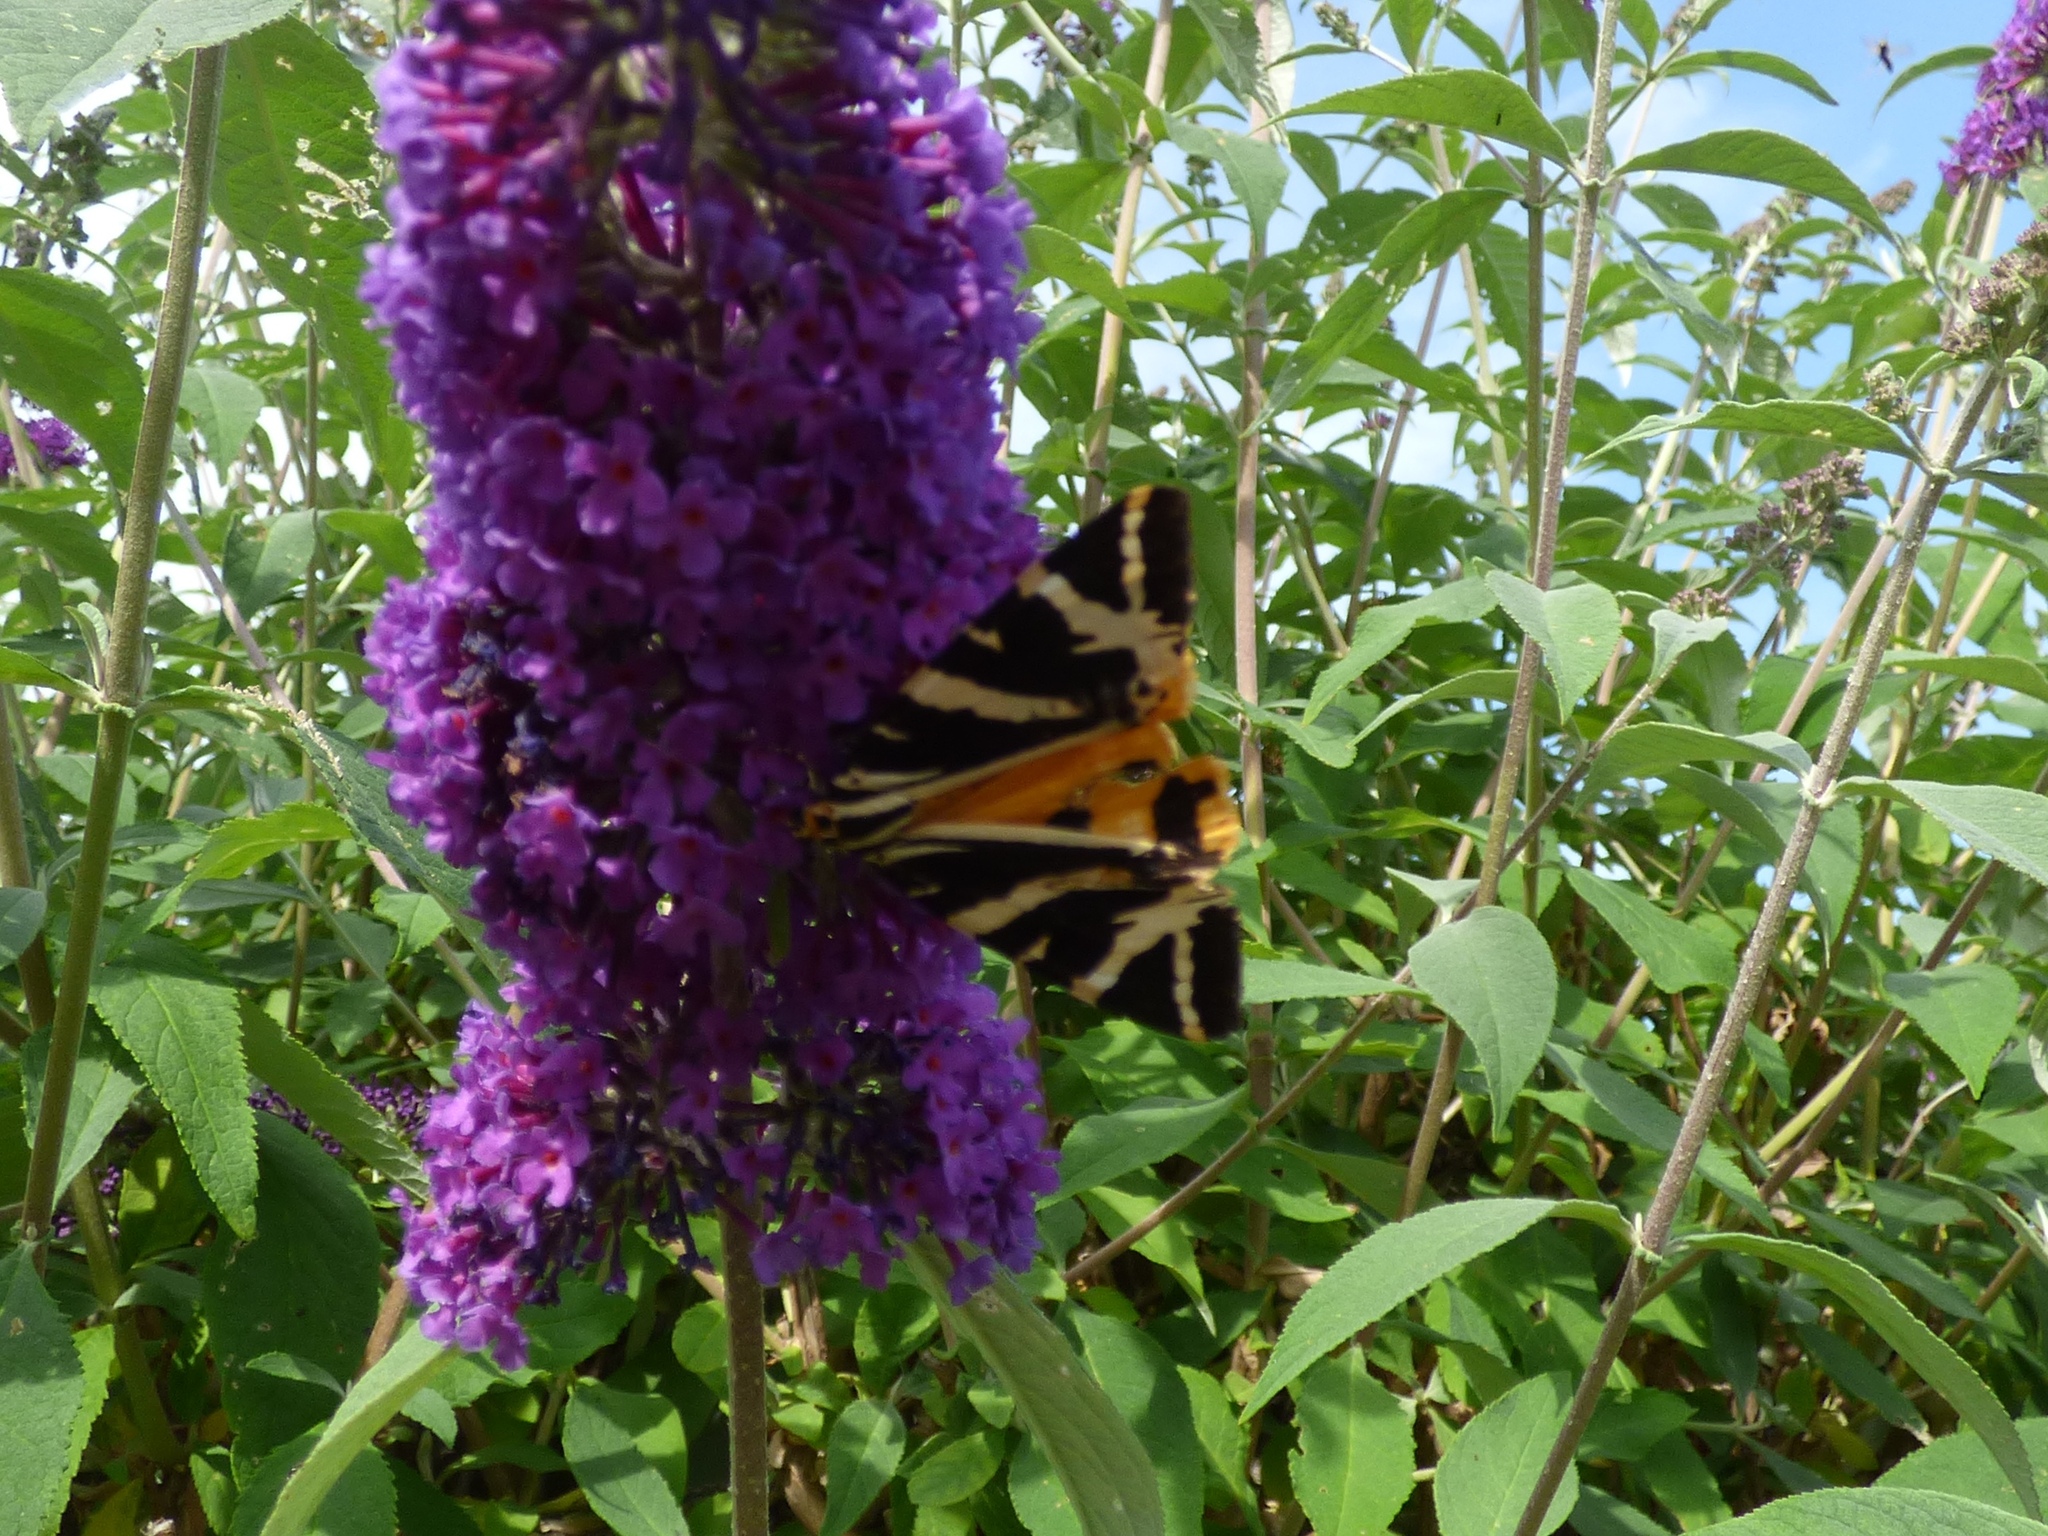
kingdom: Animalia
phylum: Arthropoda
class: Insecta
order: Lepidoptera
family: Erebidae
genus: Euplagia
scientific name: Euplagia quadripunctaria
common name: Jersey tiger
